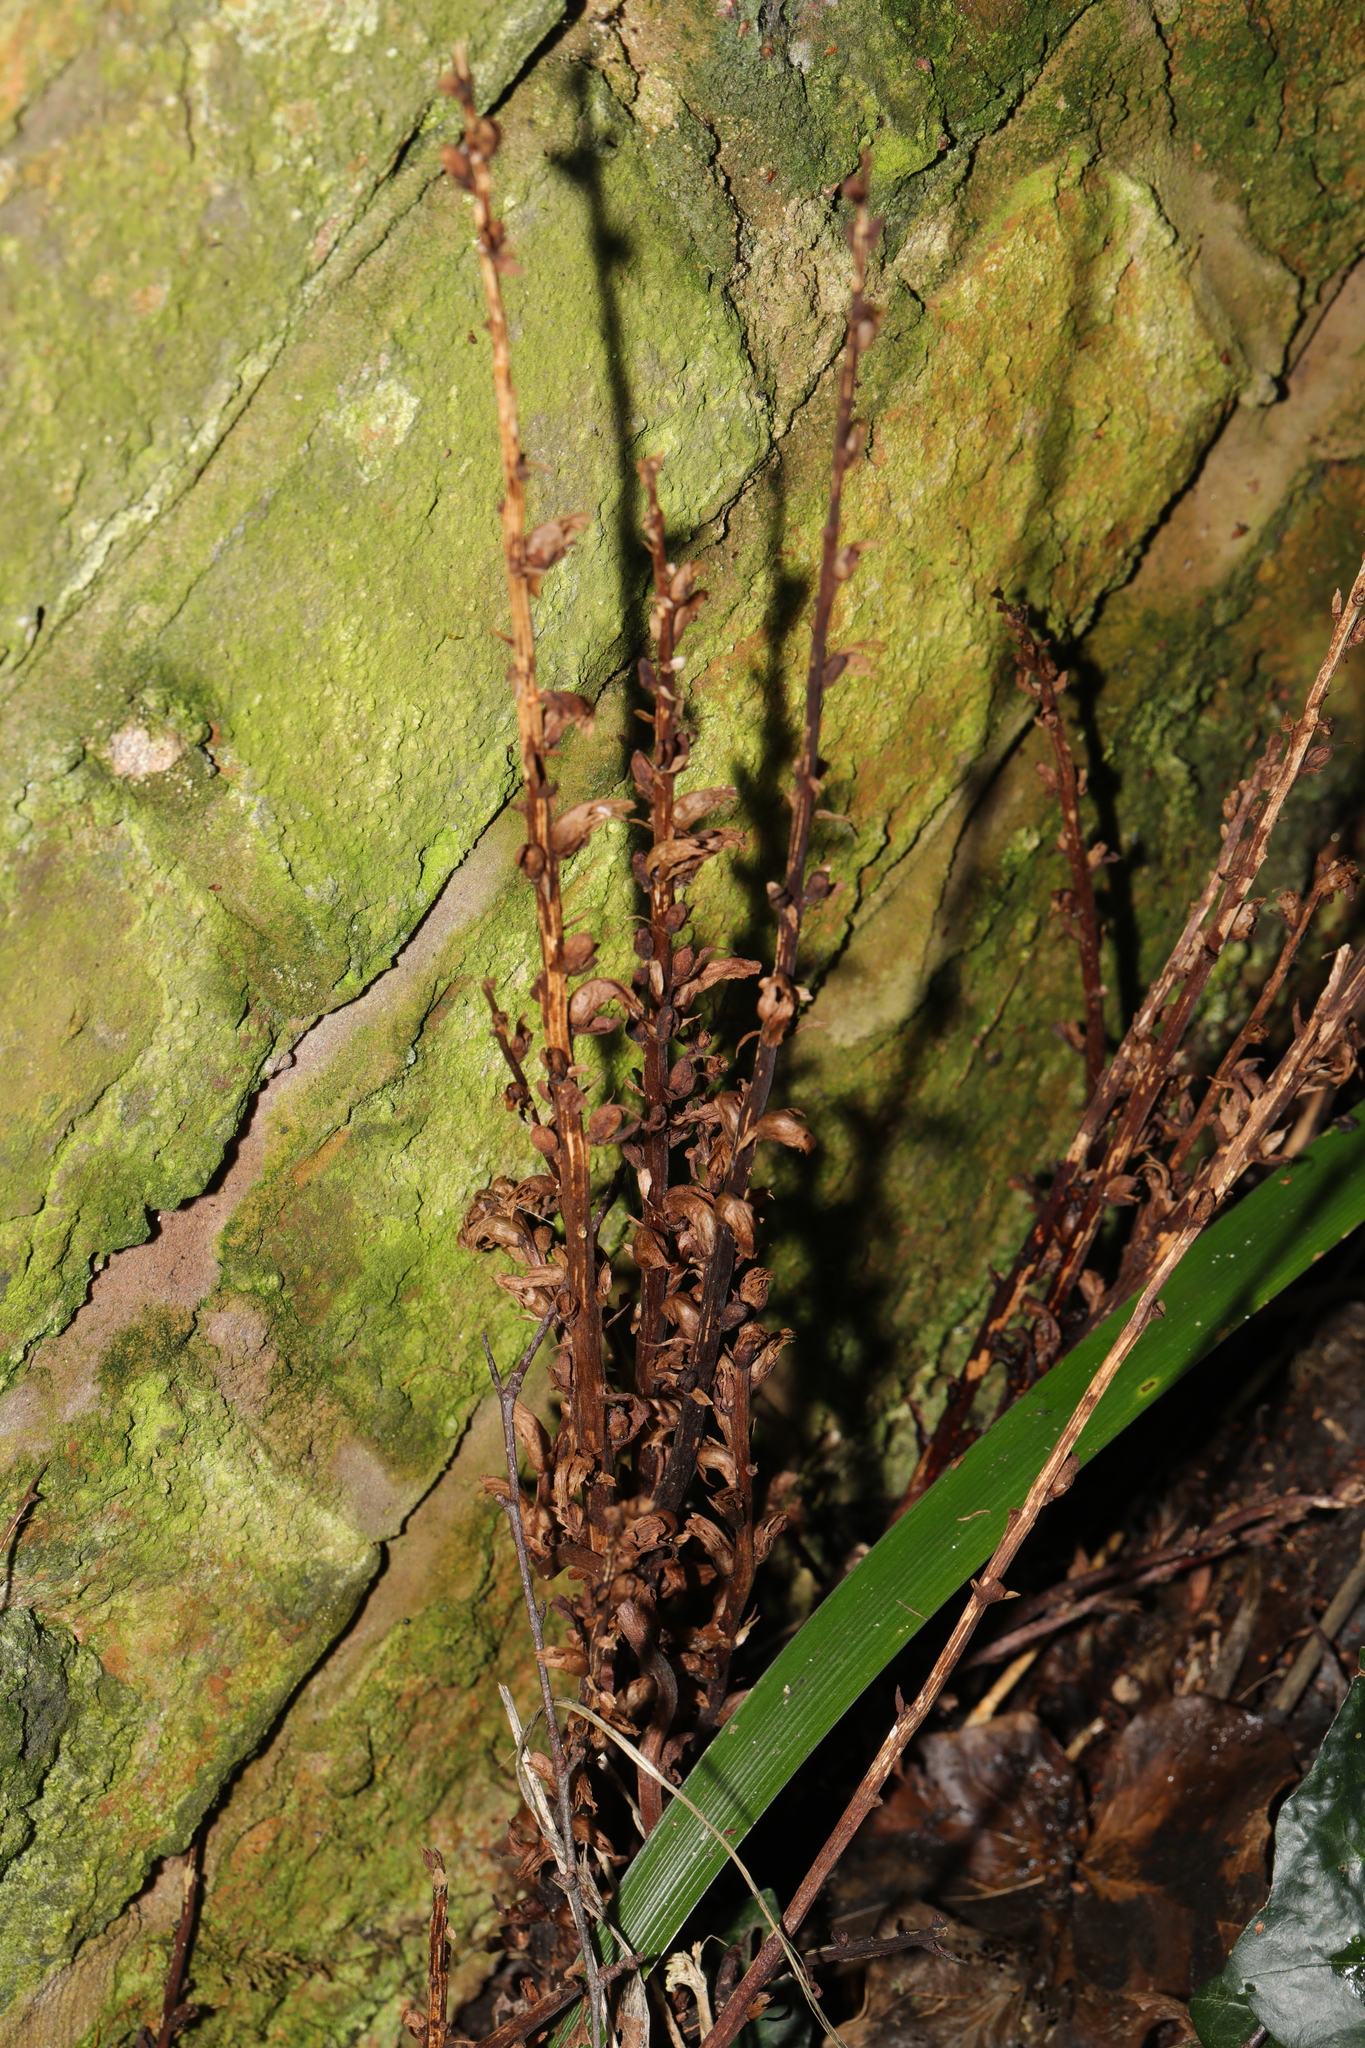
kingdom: Plantae
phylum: Tracheophyta
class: Magnoliopsida
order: Lamiales
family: Orobanchaceae
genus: Orobanche
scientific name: Orobanche minor
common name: Common broomrape
